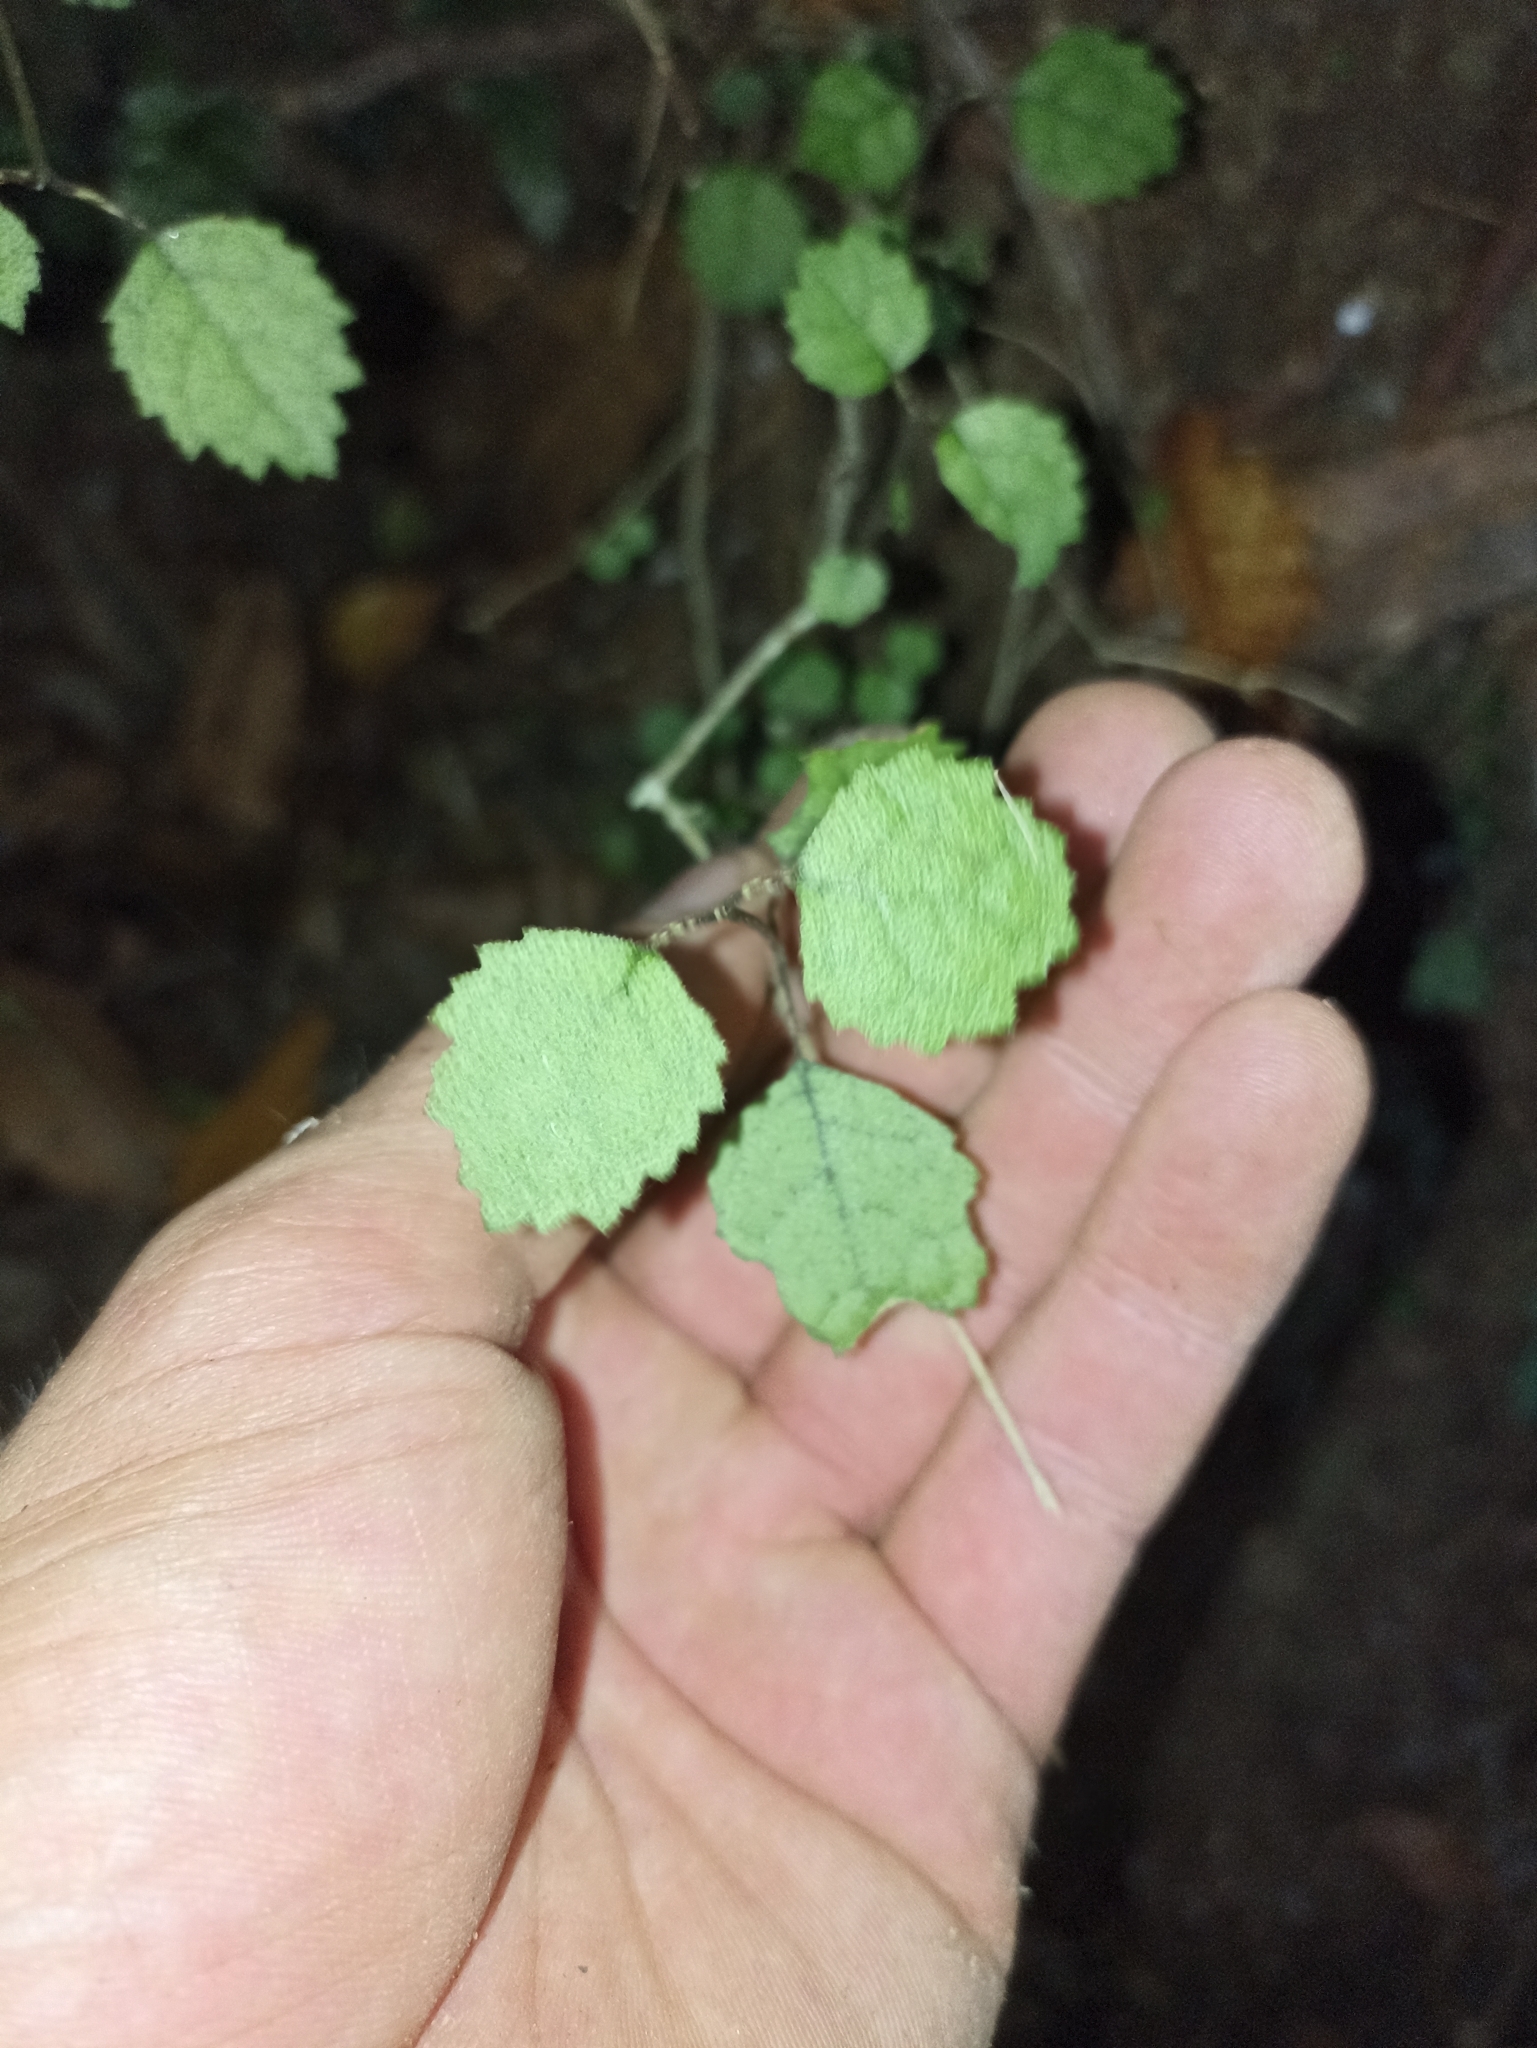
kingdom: Plantae
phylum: Tracheophyta
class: Magnoliopsida
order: Lamiales
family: Gesneriaceae
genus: Rhabdothamnus
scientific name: Rhabdothamnus solandri
